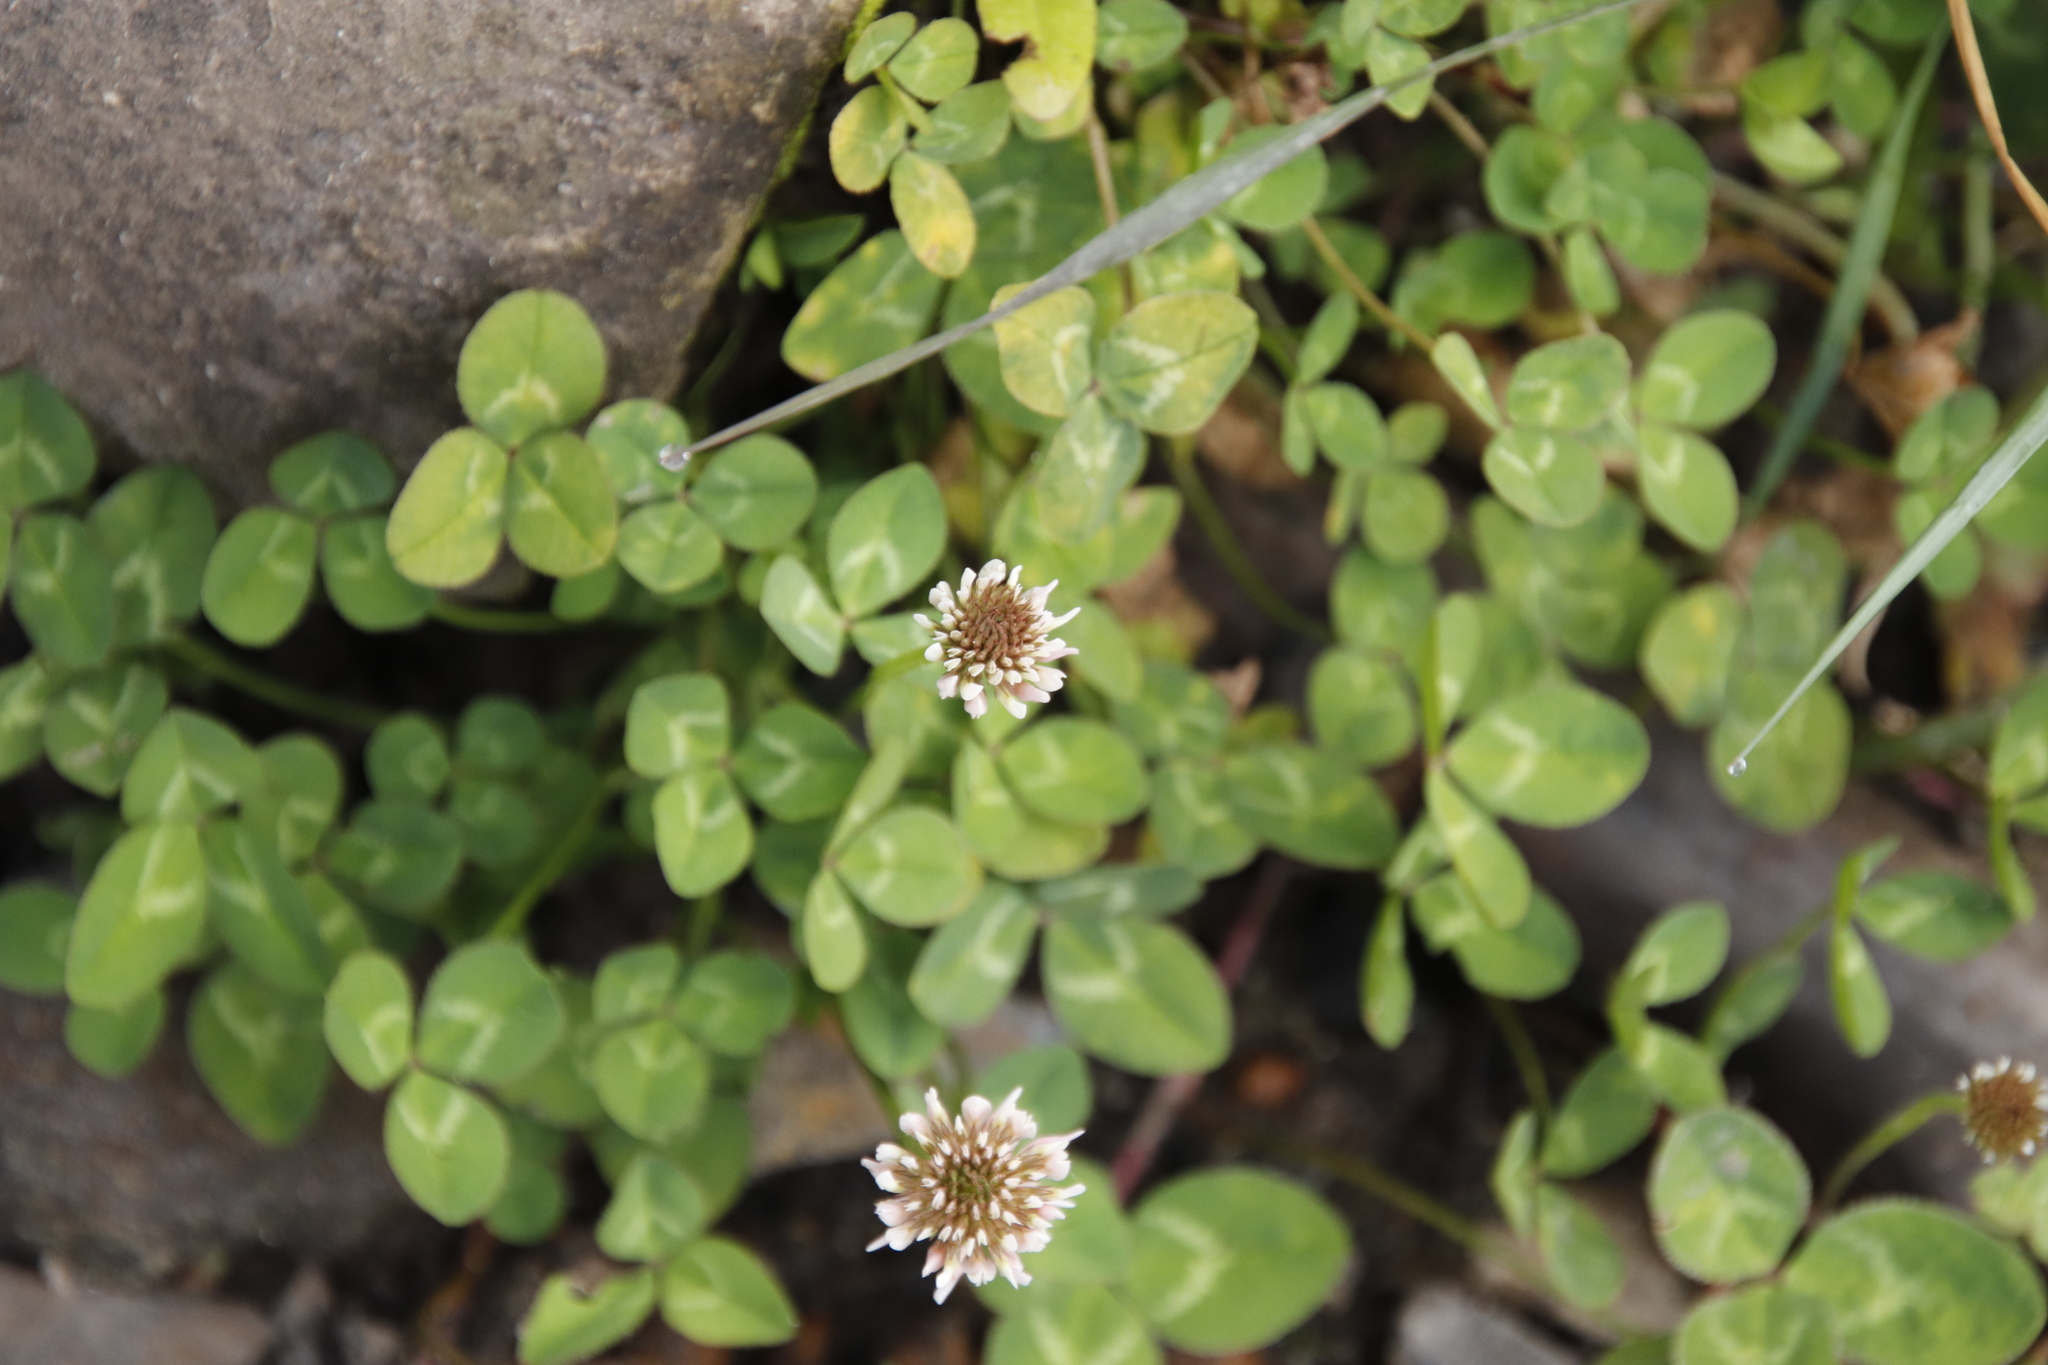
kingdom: Plantae
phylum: Tracheophyta
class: Magnoliopsida
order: Fabales
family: Fabaceae
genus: Trifolium
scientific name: Trifolium repens
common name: White clover
